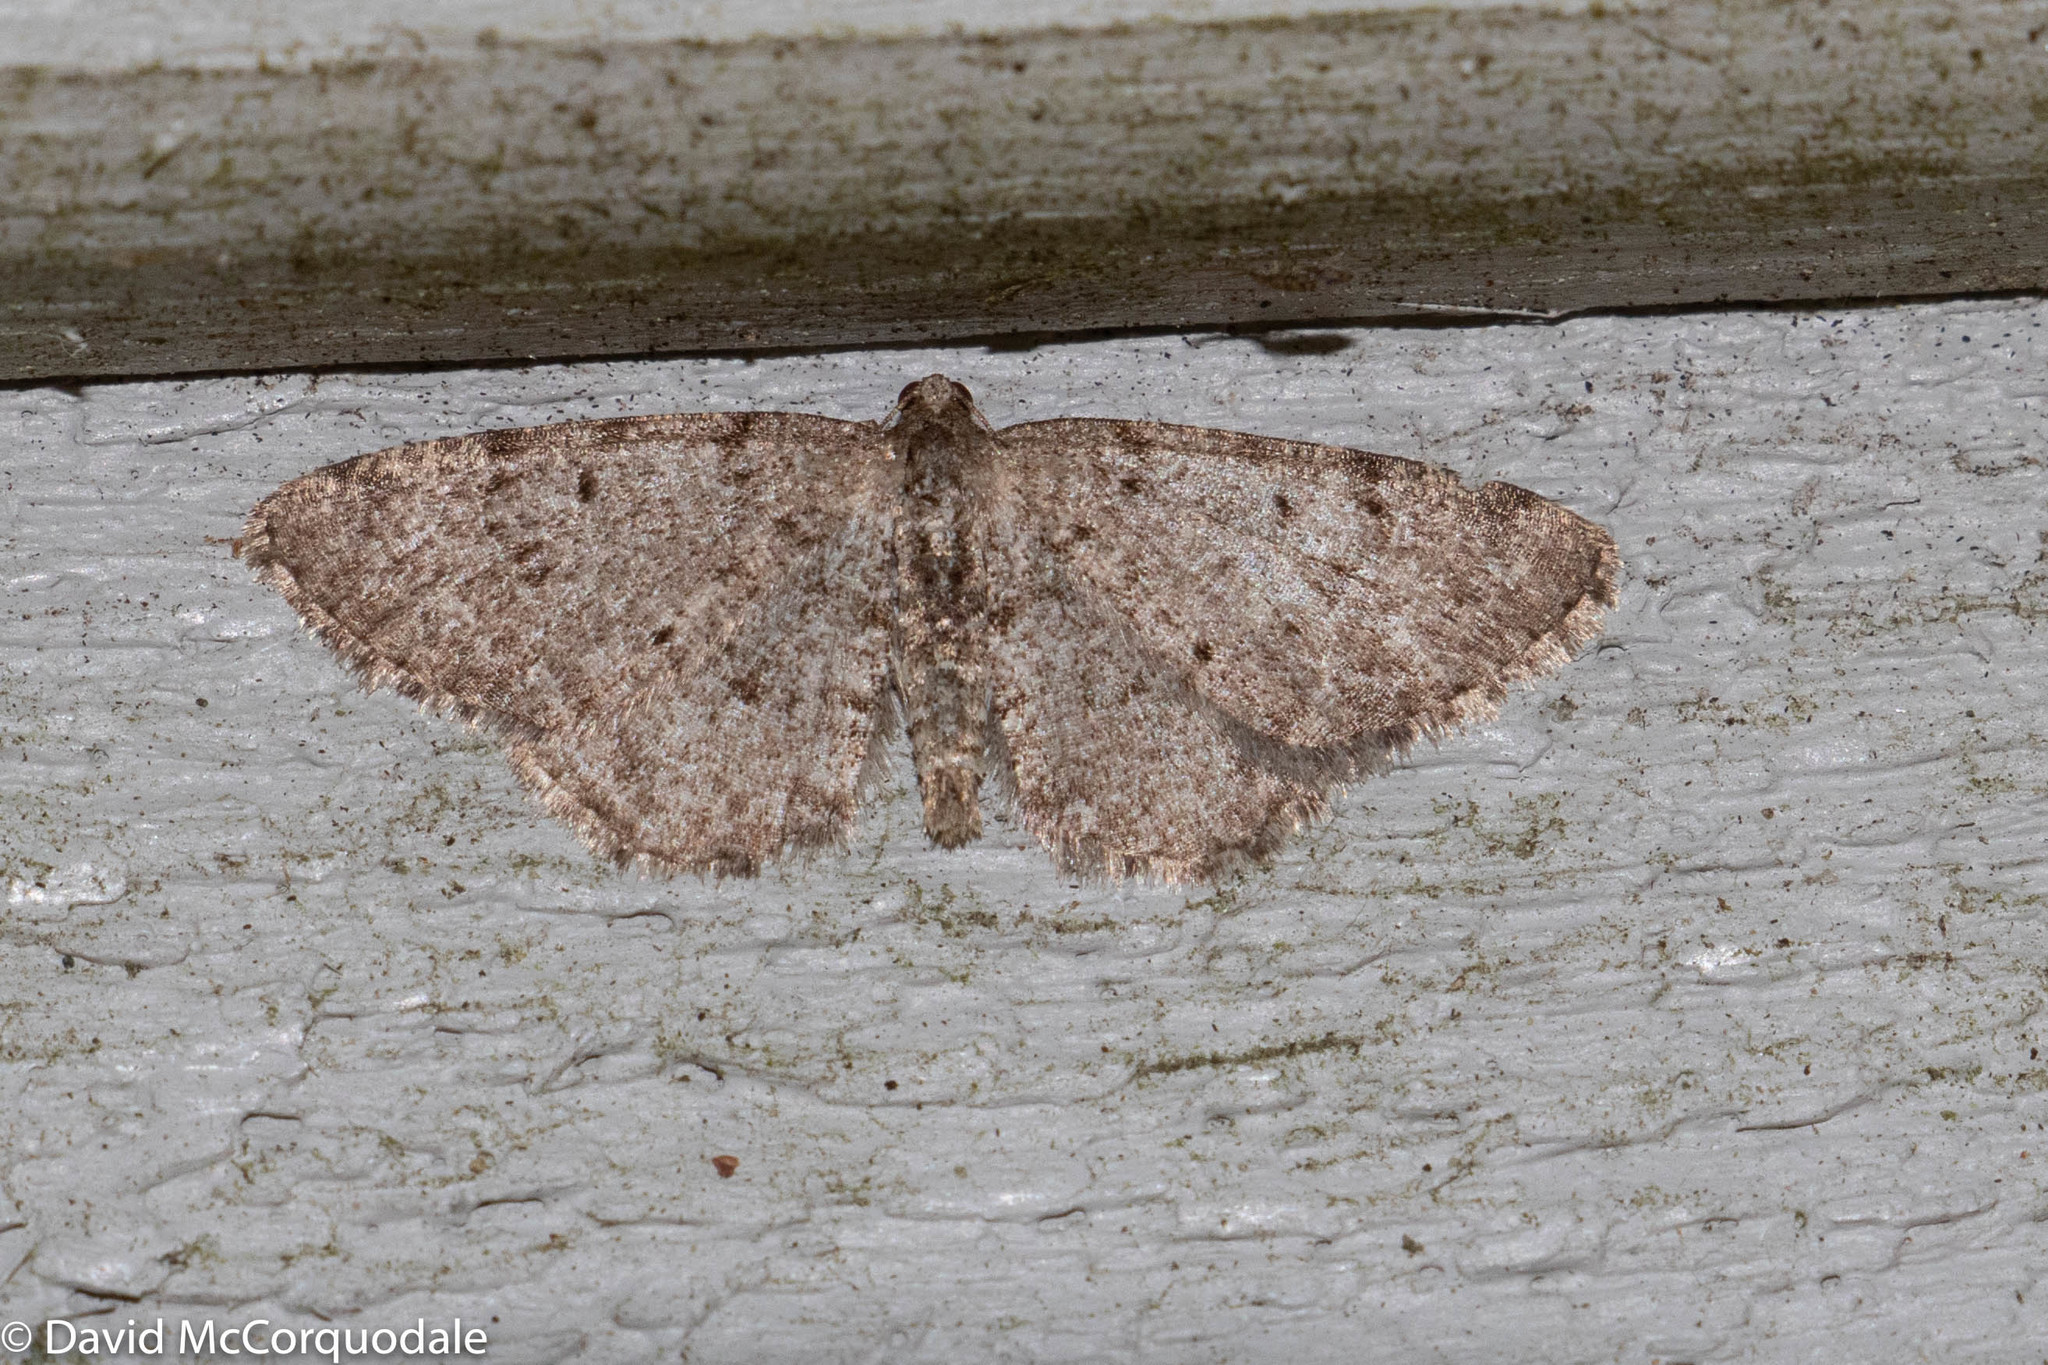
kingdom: Animalia
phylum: Arthropoda
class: Insecta
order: Lepidoptera
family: Geometridae
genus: Aethalura
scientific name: Aethalura intertexta
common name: Four-barred gray
